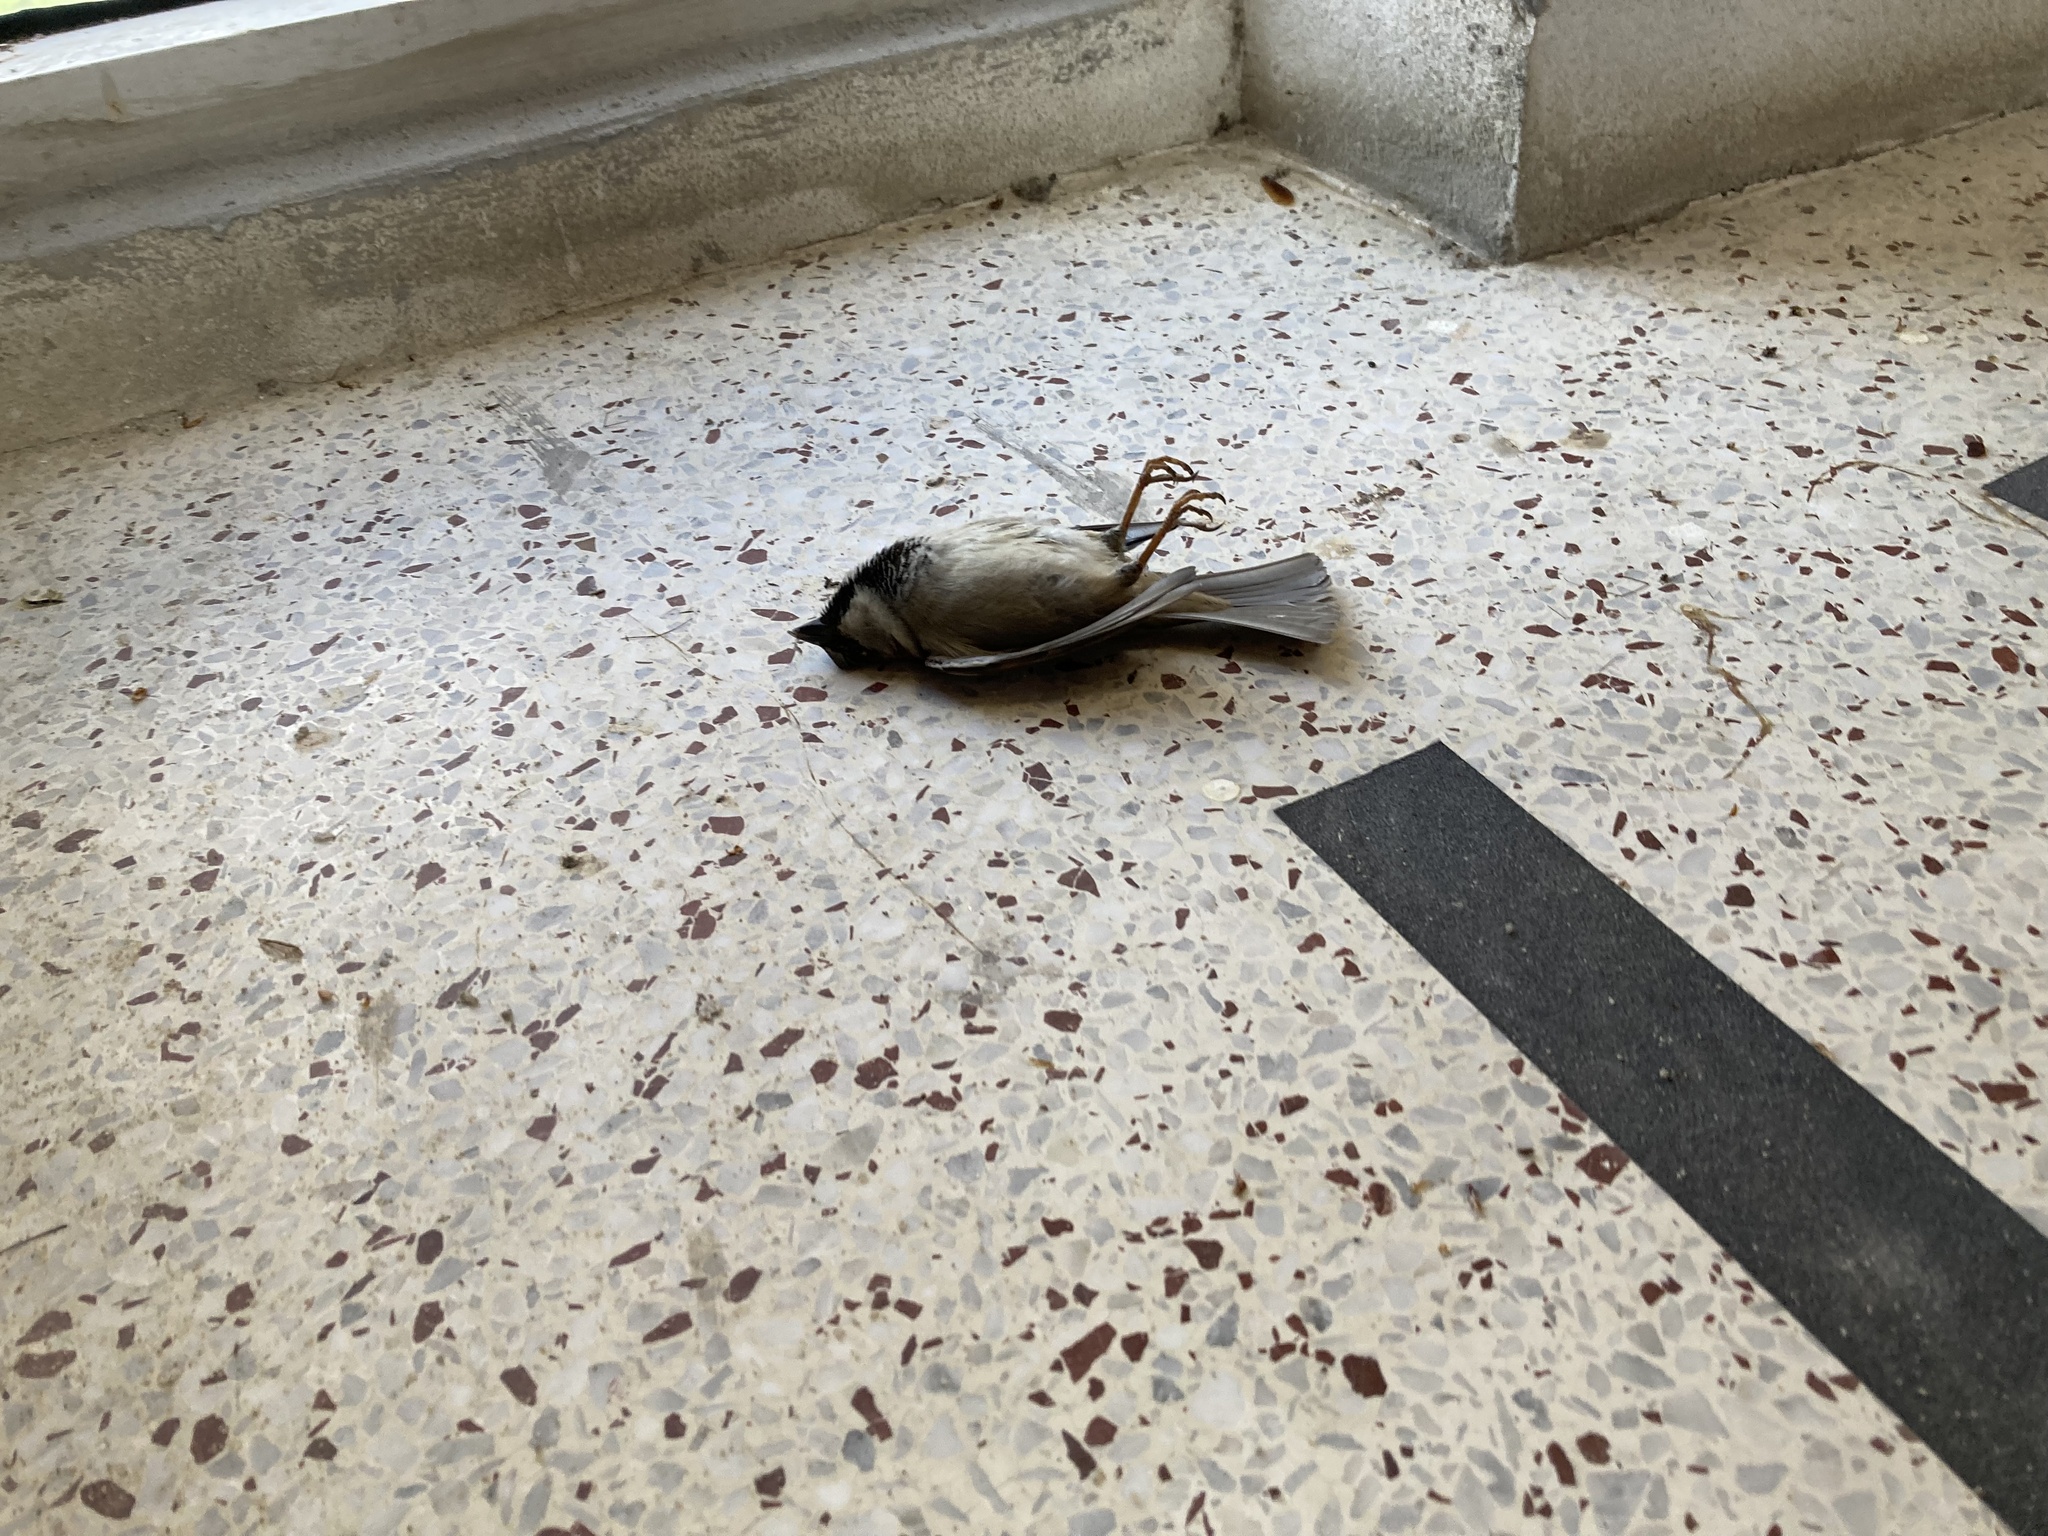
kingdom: Animalia
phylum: Chordata
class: Aves
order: Passeriformes
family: Passeridae
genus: Passer
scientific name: Passer domesticus
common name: House sparrow
